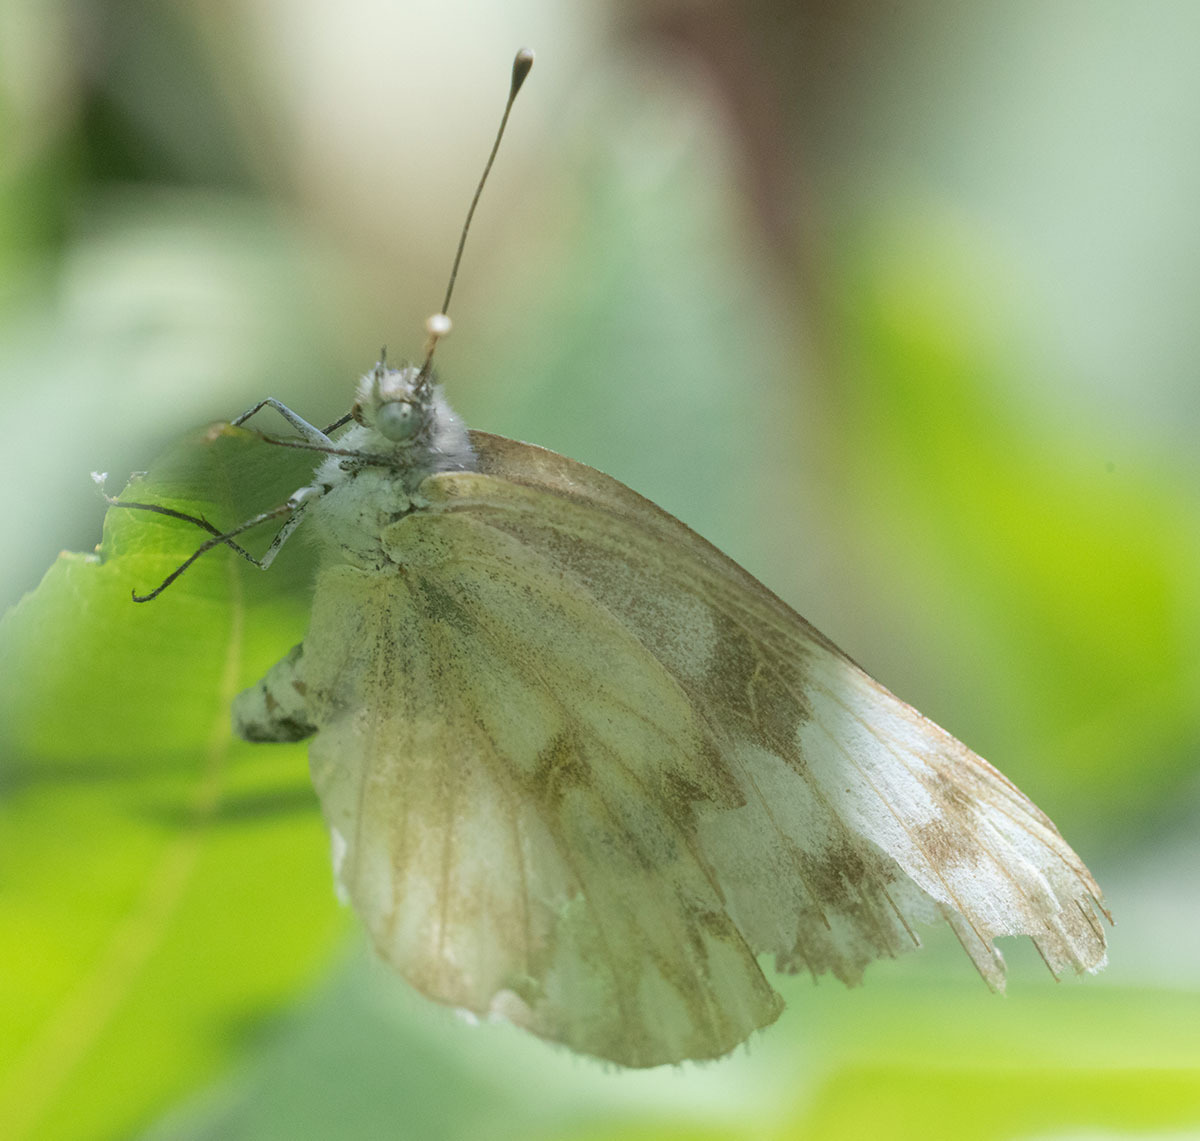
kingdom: Animalia
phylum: Arthropoda
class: Insecta
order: Lepidoptera
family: Pieridae
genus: Pontia
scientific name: Pontia protodice
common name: Checkered white
